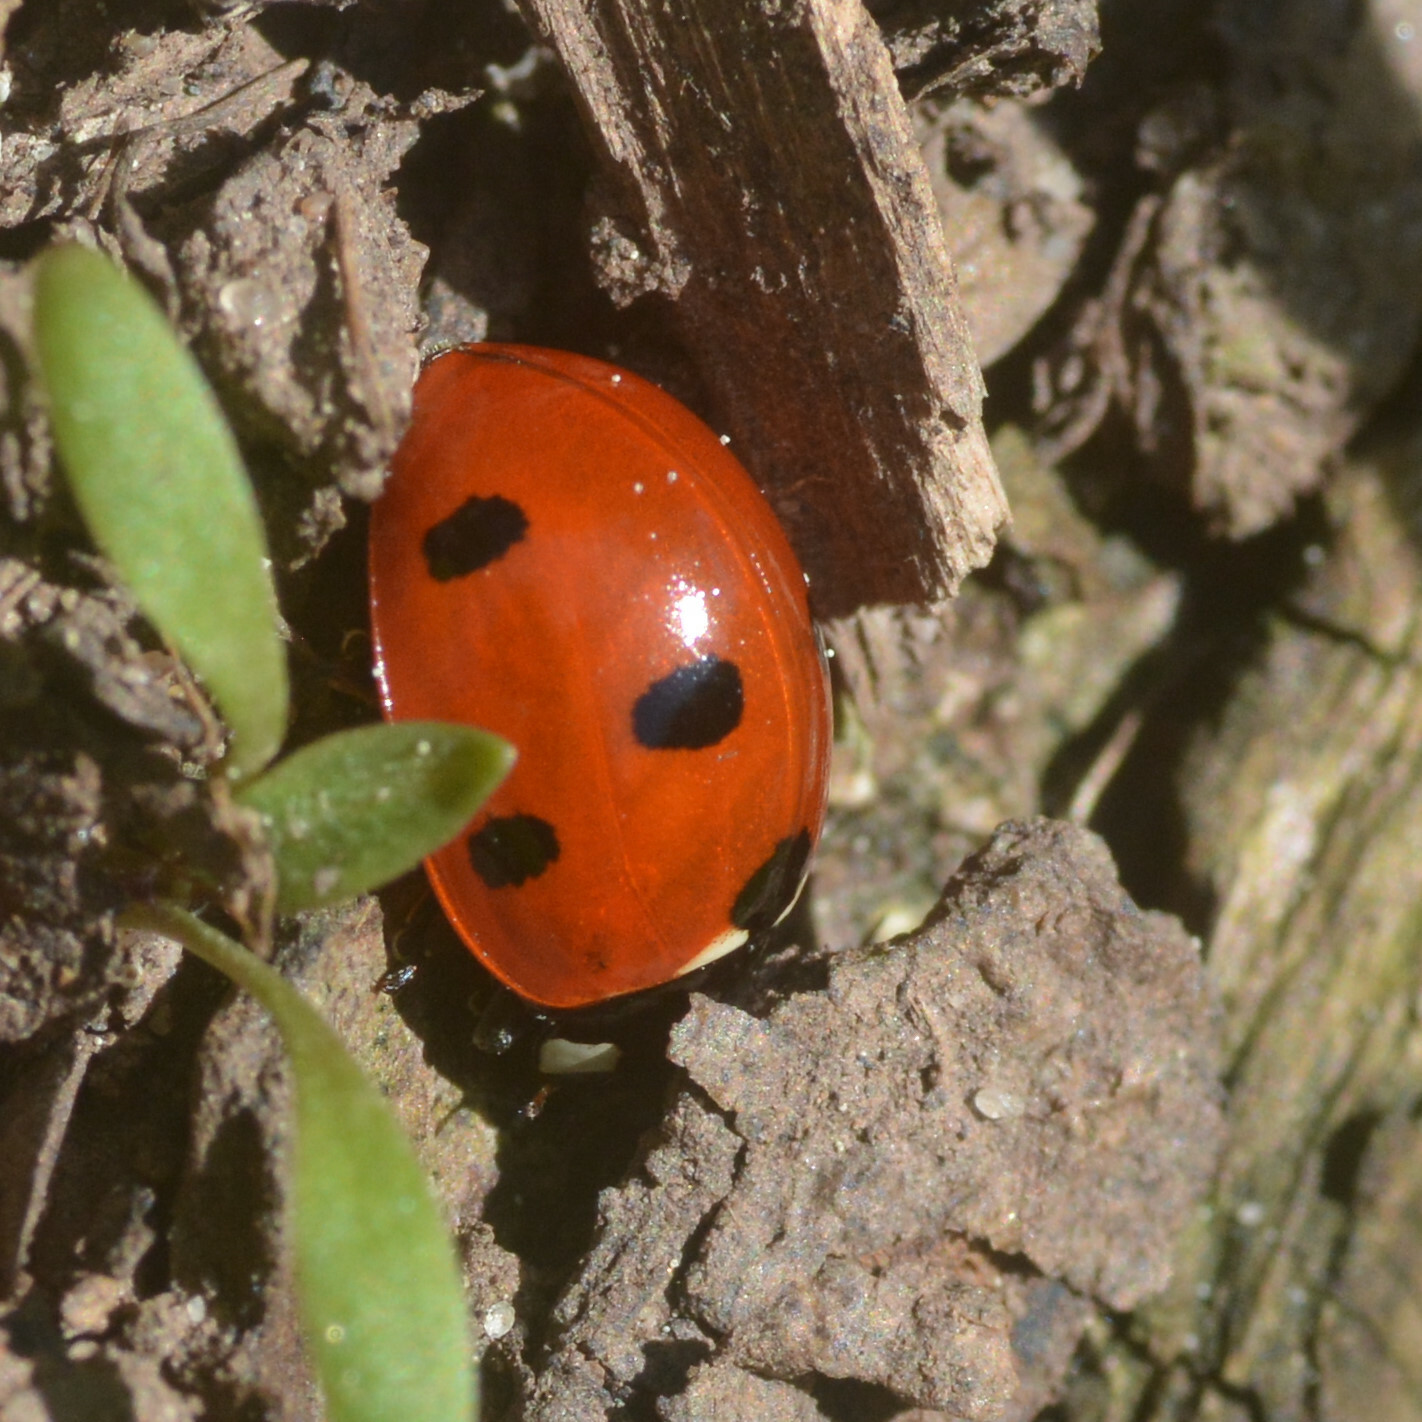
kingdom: Animalia
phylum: Arthropoda
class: Insecta
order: Coleoptera
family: Coccinellidae
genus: Coccinella
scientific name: Coccinella septempunctata
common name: Sevenspotted lady beetle
